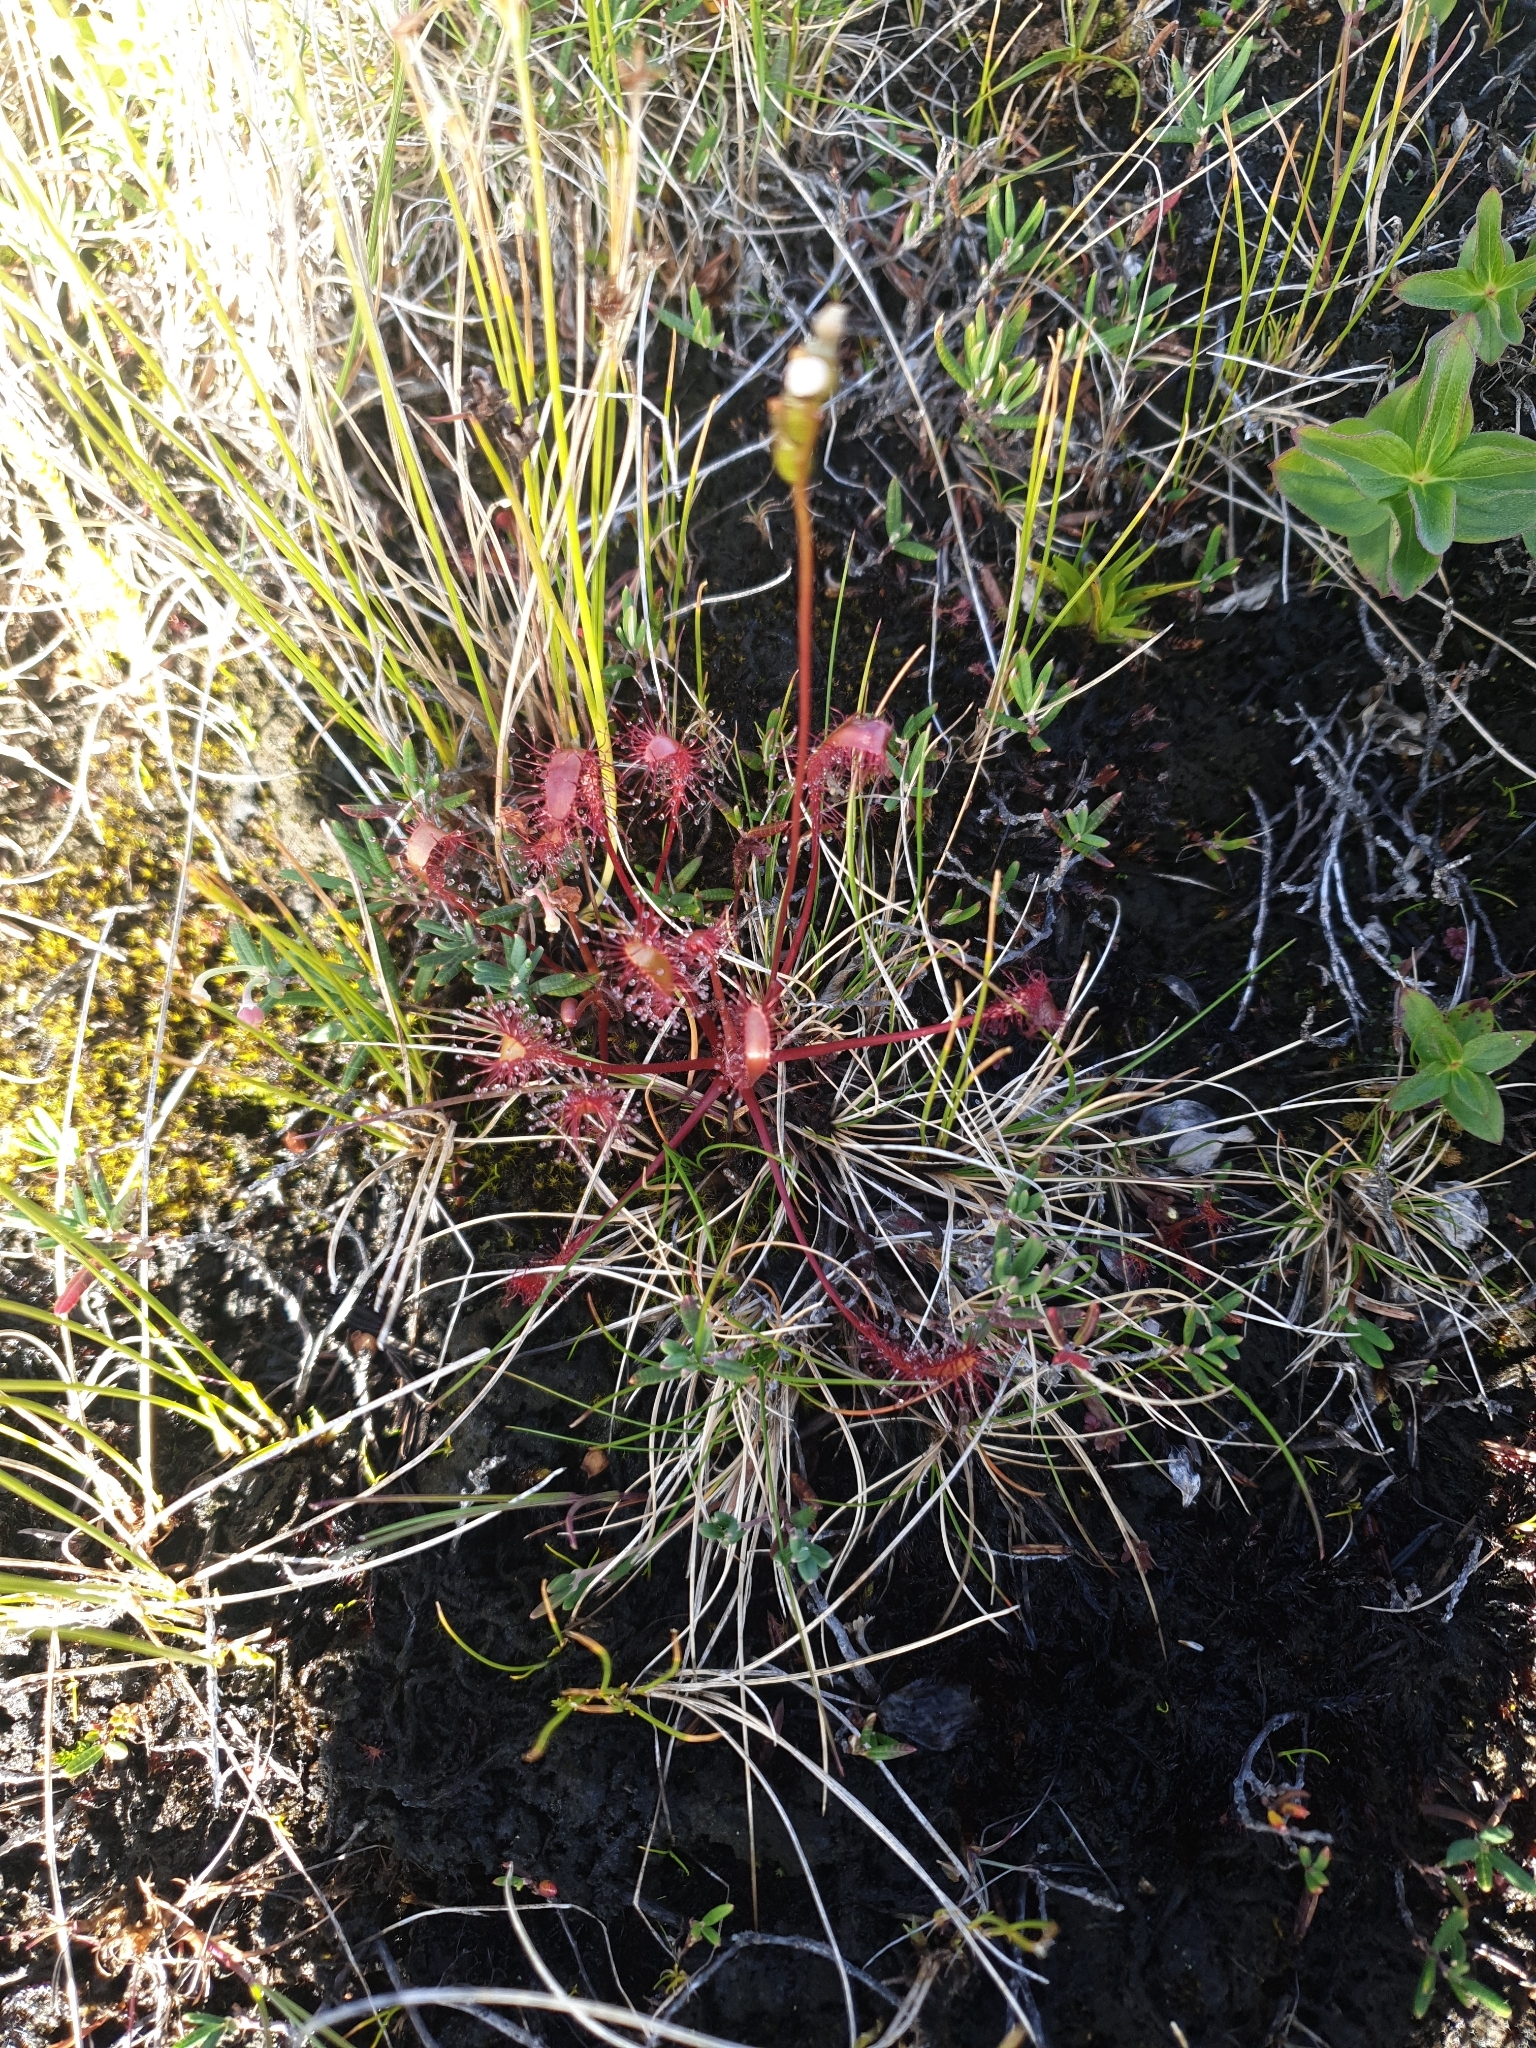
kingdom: Plantae
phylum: Tracheophyta
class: Magnoliopsida
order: Caryophyllales
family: Droseraceae
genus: Drosera
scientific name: Drosera anglica
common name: Great sundew
